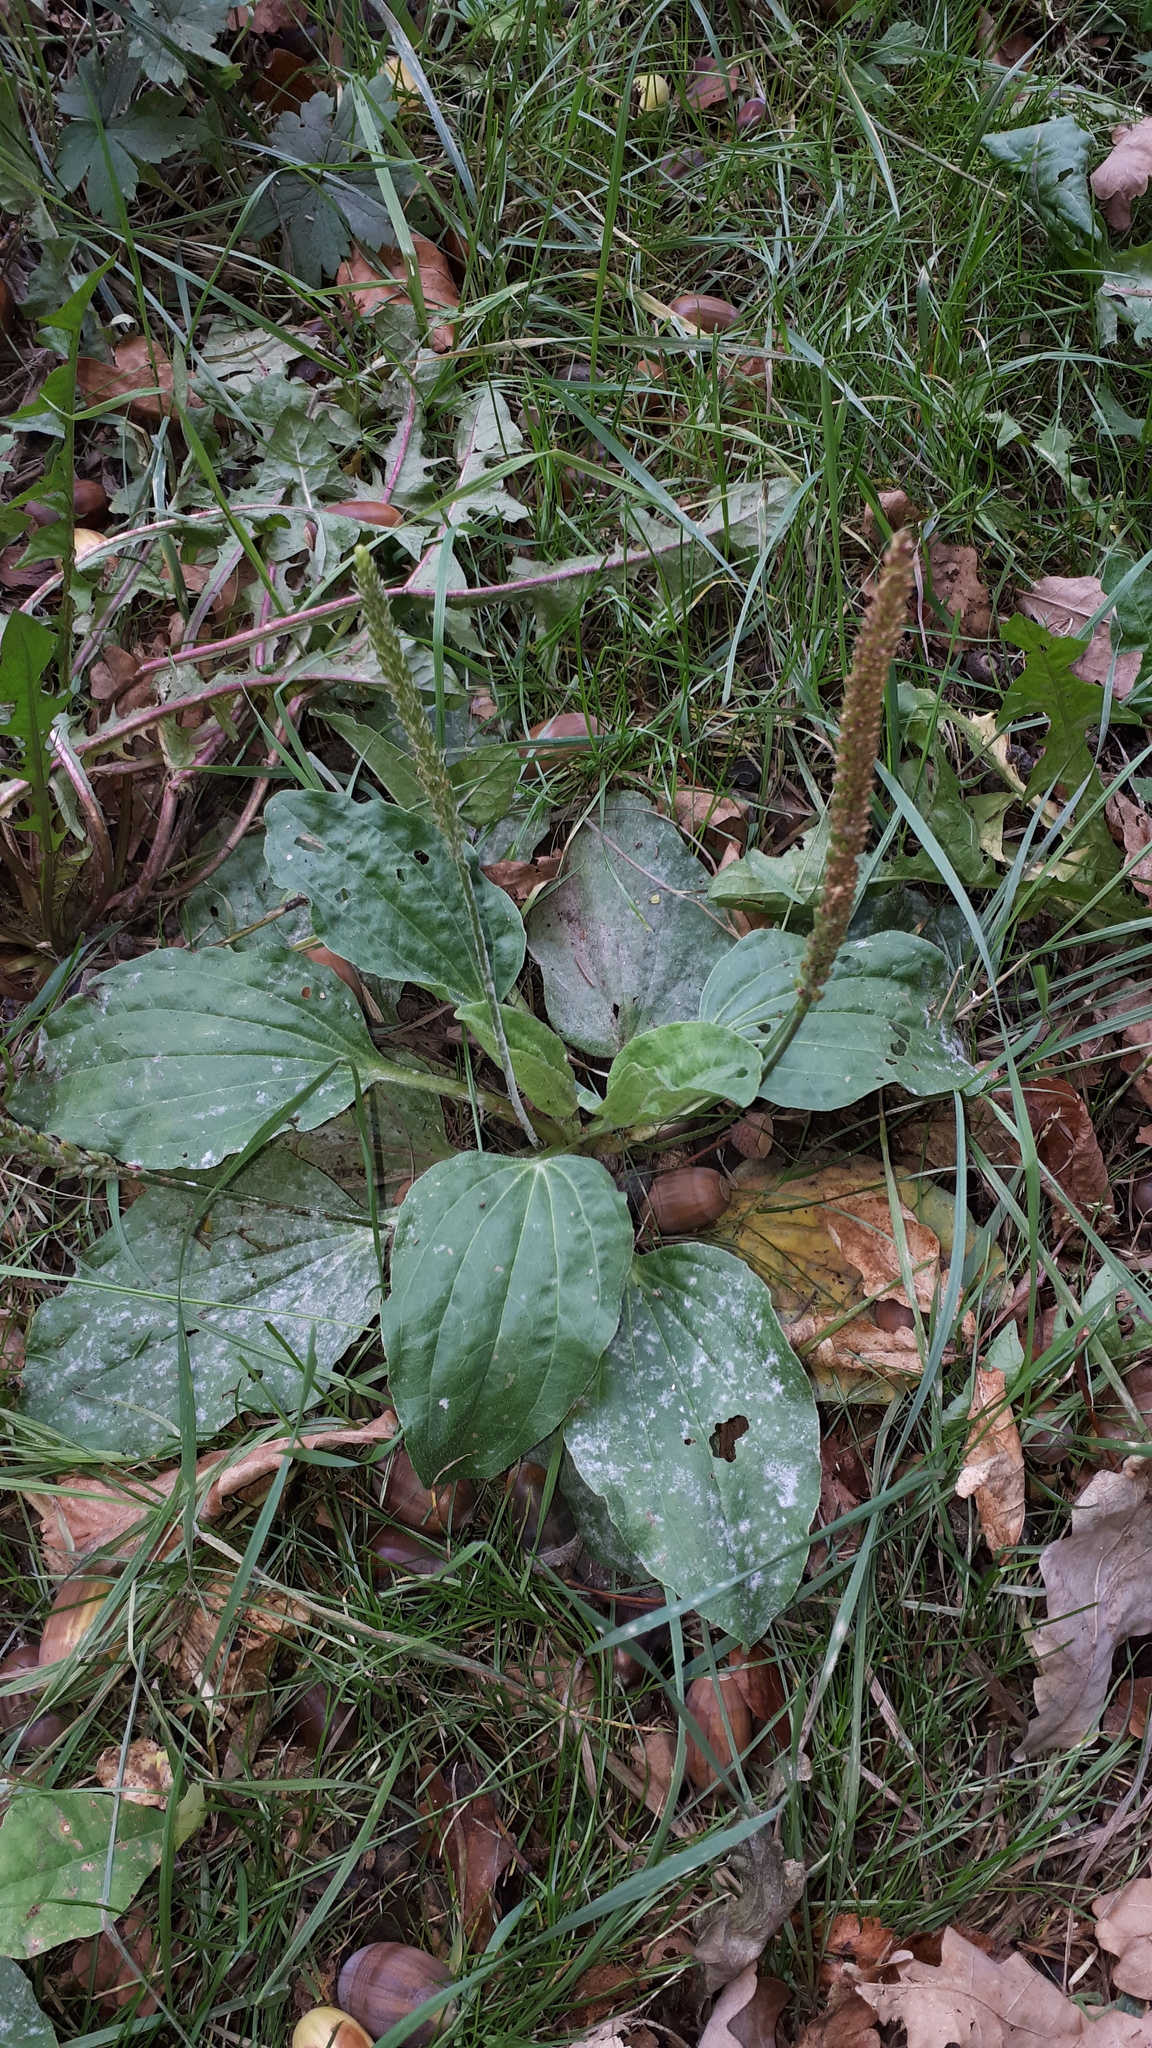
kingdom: Plantae
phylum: Tracheophyta
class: Magnoliopsida
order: Lamiales
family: Plantaginaceae
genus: Plantago
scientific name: Plantago major
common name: Common plantain
